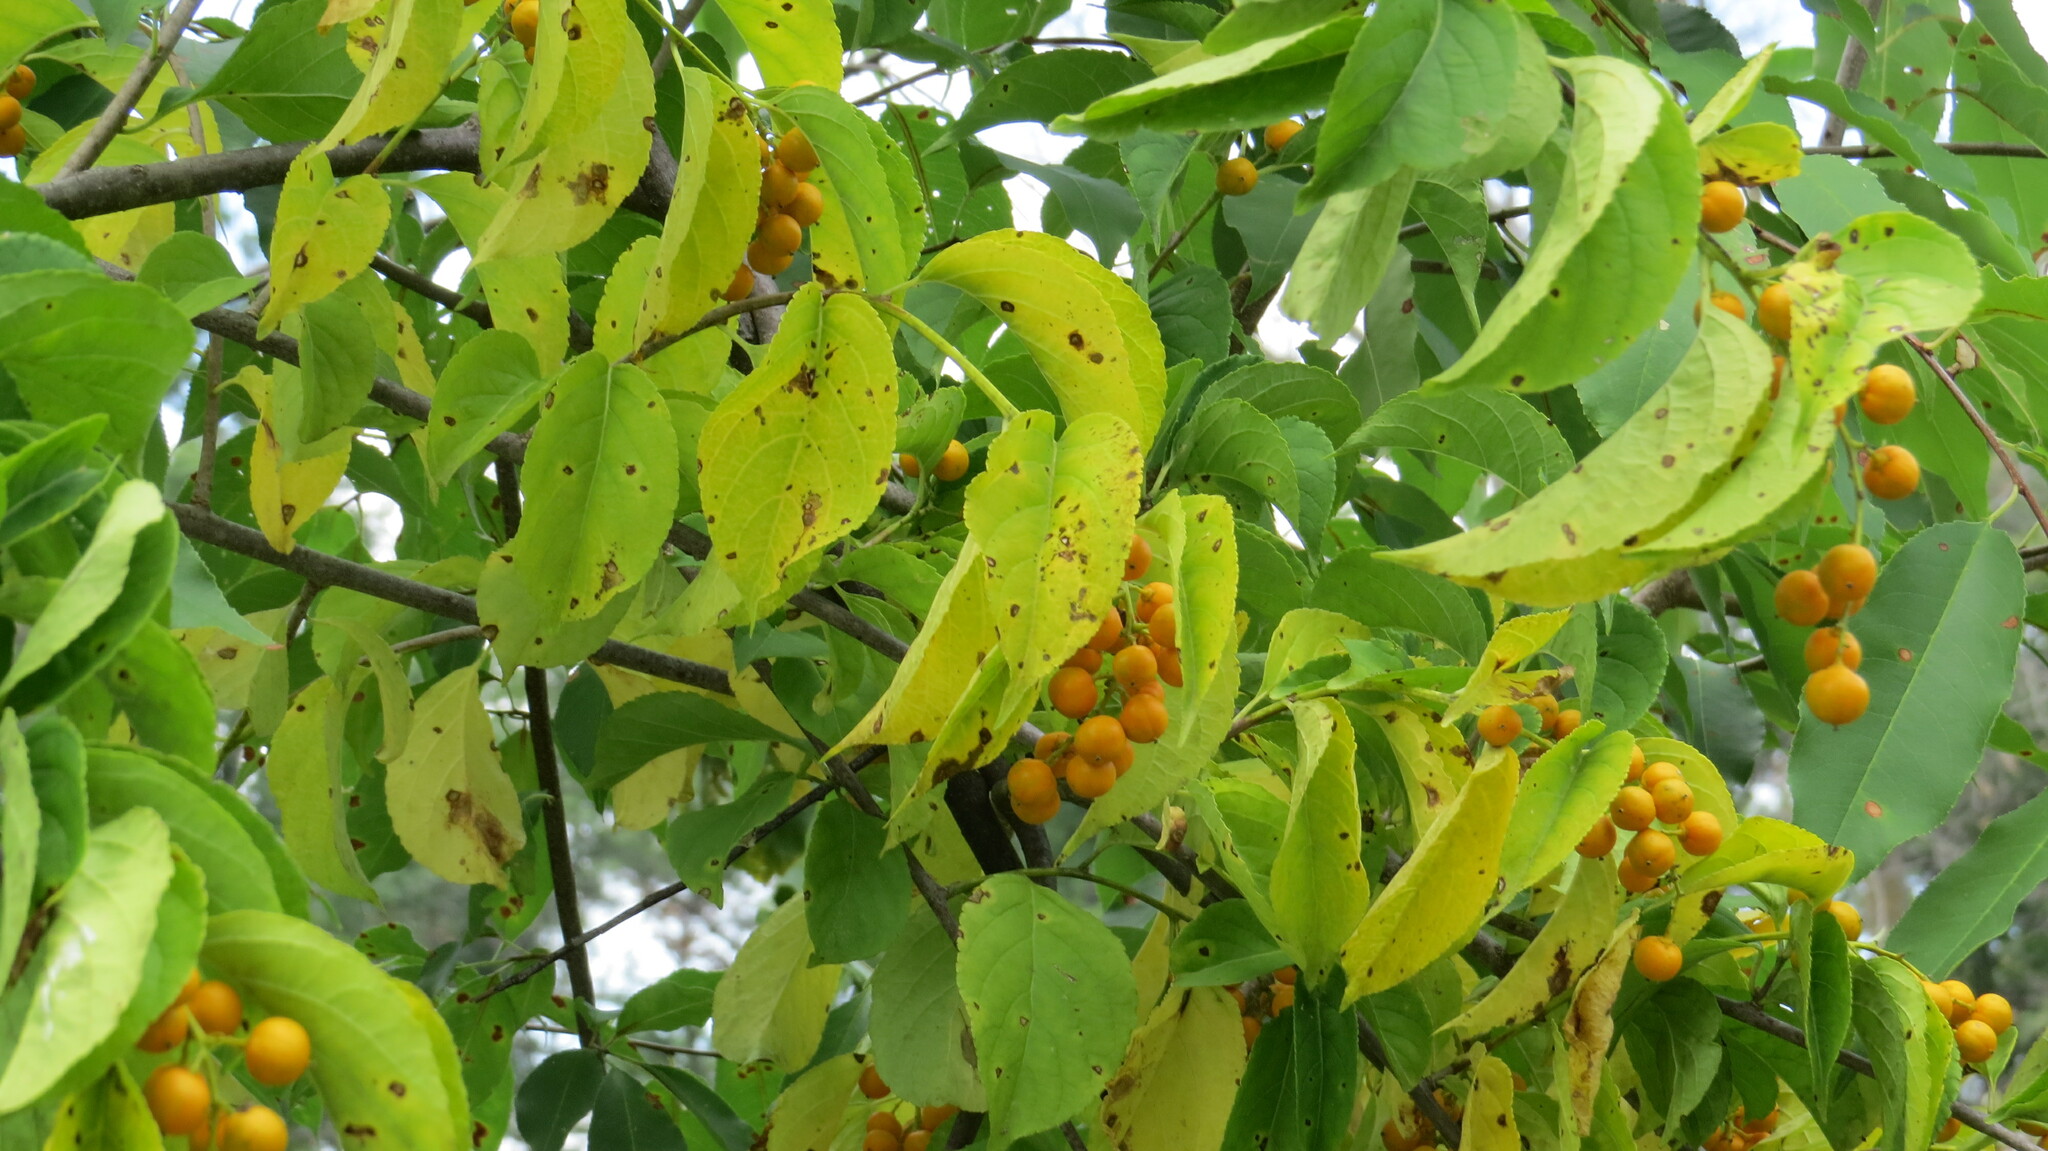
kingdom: Plantae
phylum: Tracheophyta
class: Magnoliopsida
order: Celastrales
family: Celastraceae
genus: Celastrus
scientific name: Celastrus scandens
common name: American bittersweet
